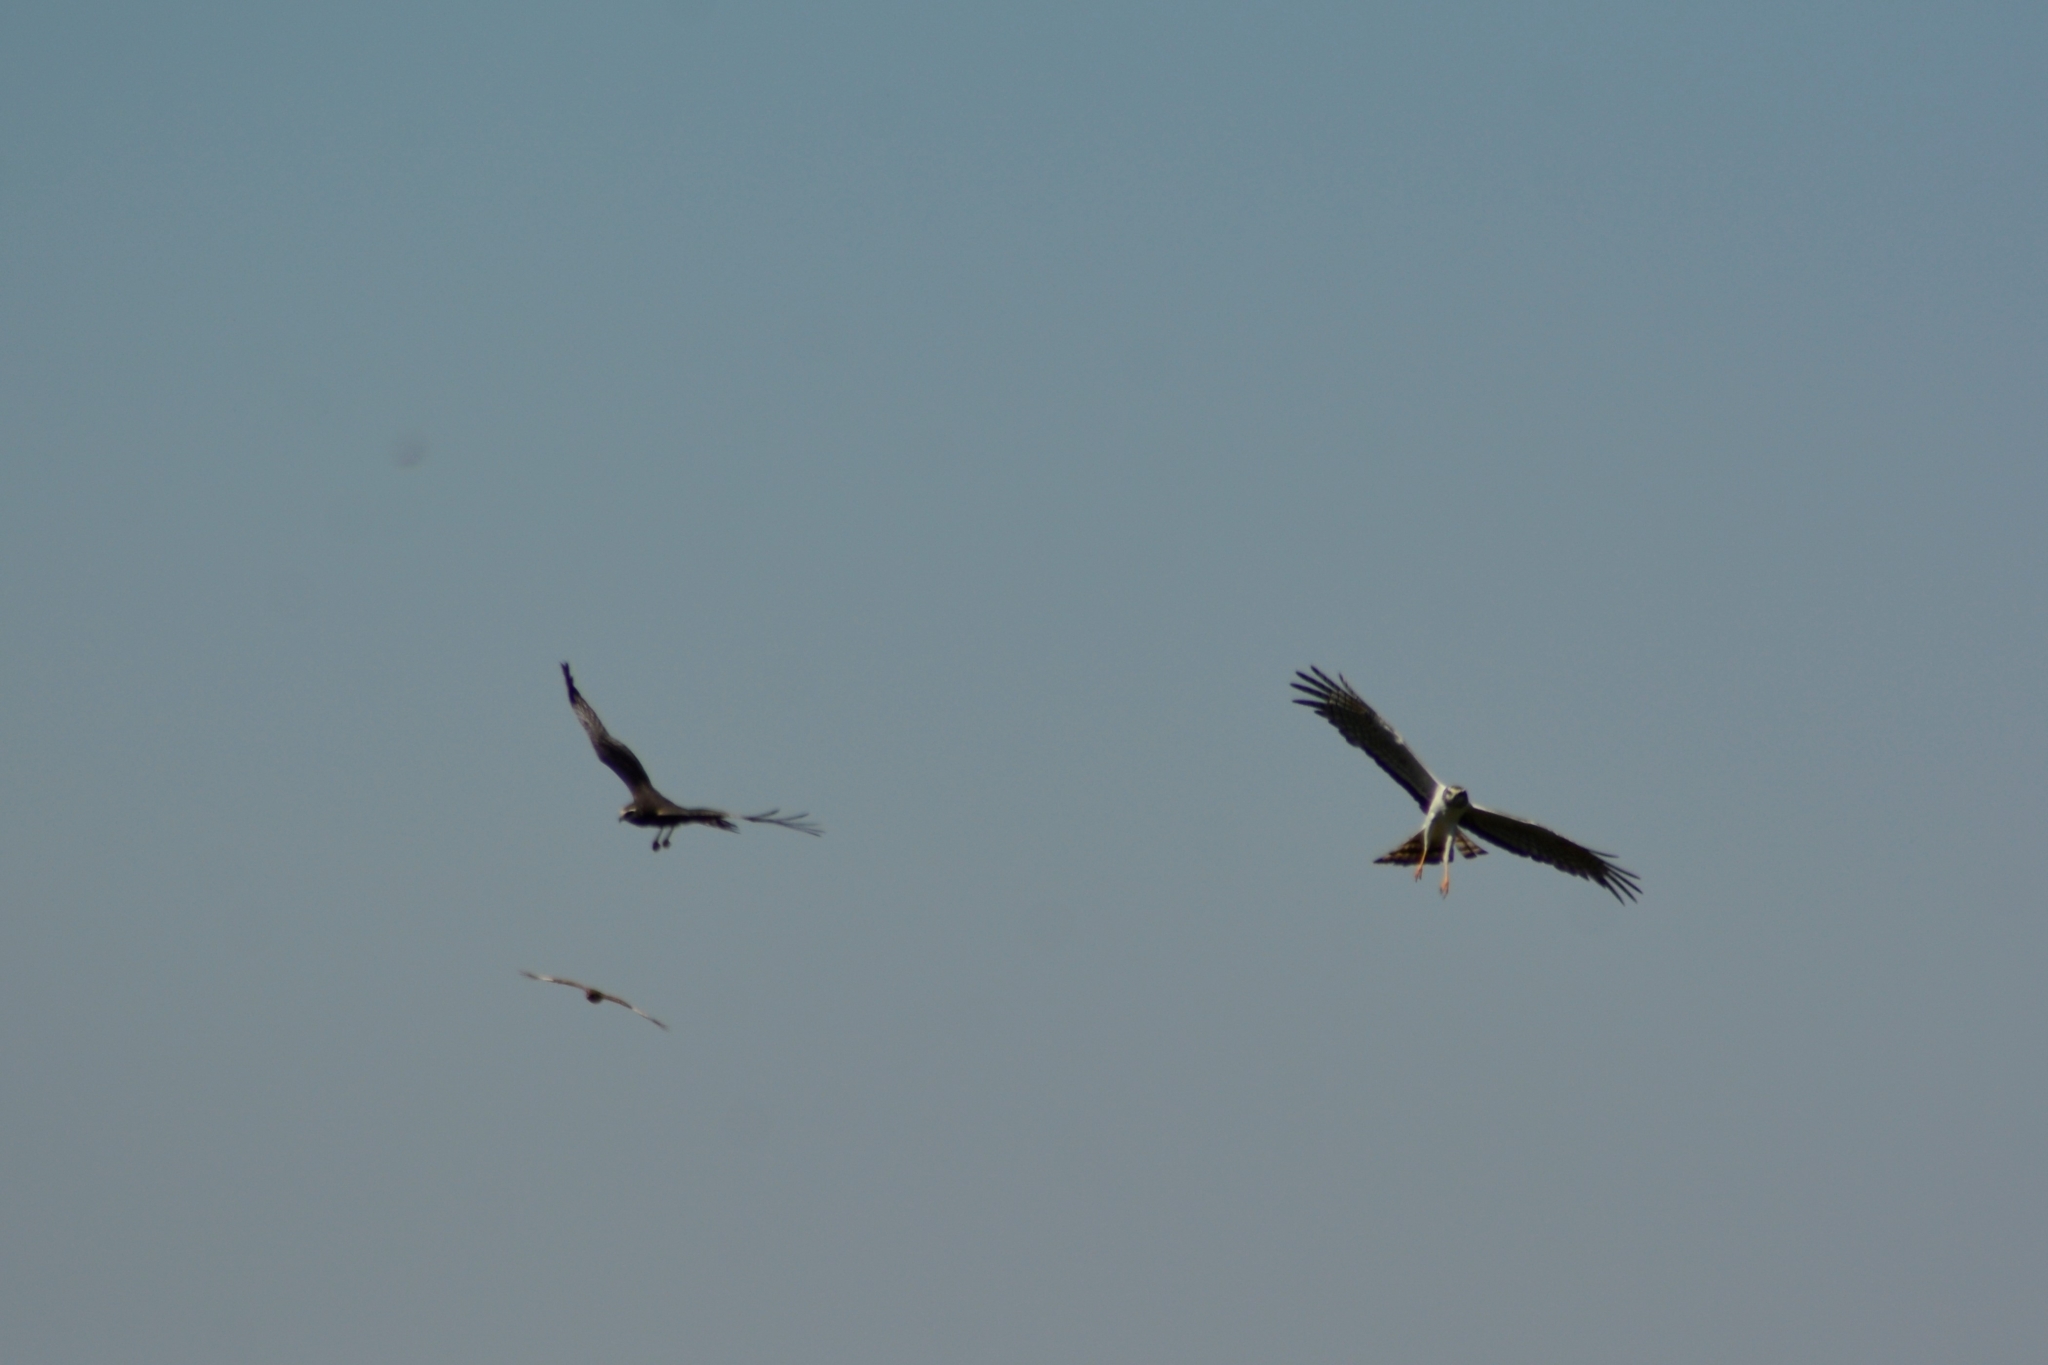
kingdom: Animalia
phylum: Chordata
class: Aves
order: Accipitriformes
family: Accipitridae
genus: Circus
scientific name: Circus buffoni
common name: Long-winged harrier
